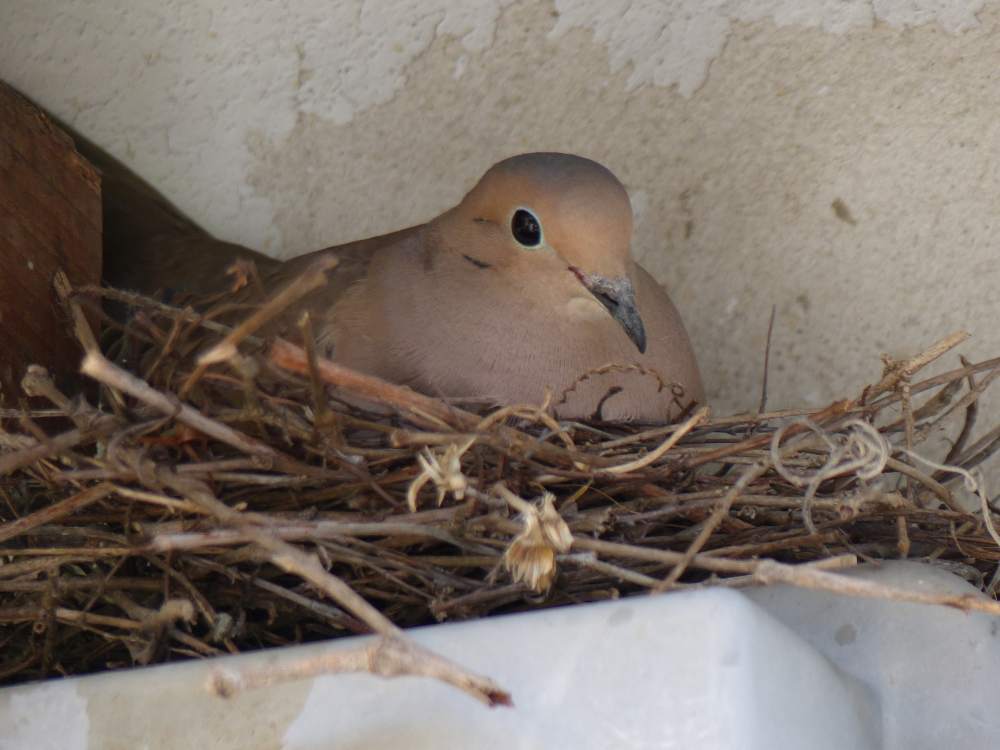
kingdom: Animalia
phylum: Chordata
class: Aves
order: Columbiformes
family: Columbidae
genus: Zenaida
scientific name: Zenaida macroura
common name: Mourning dove
